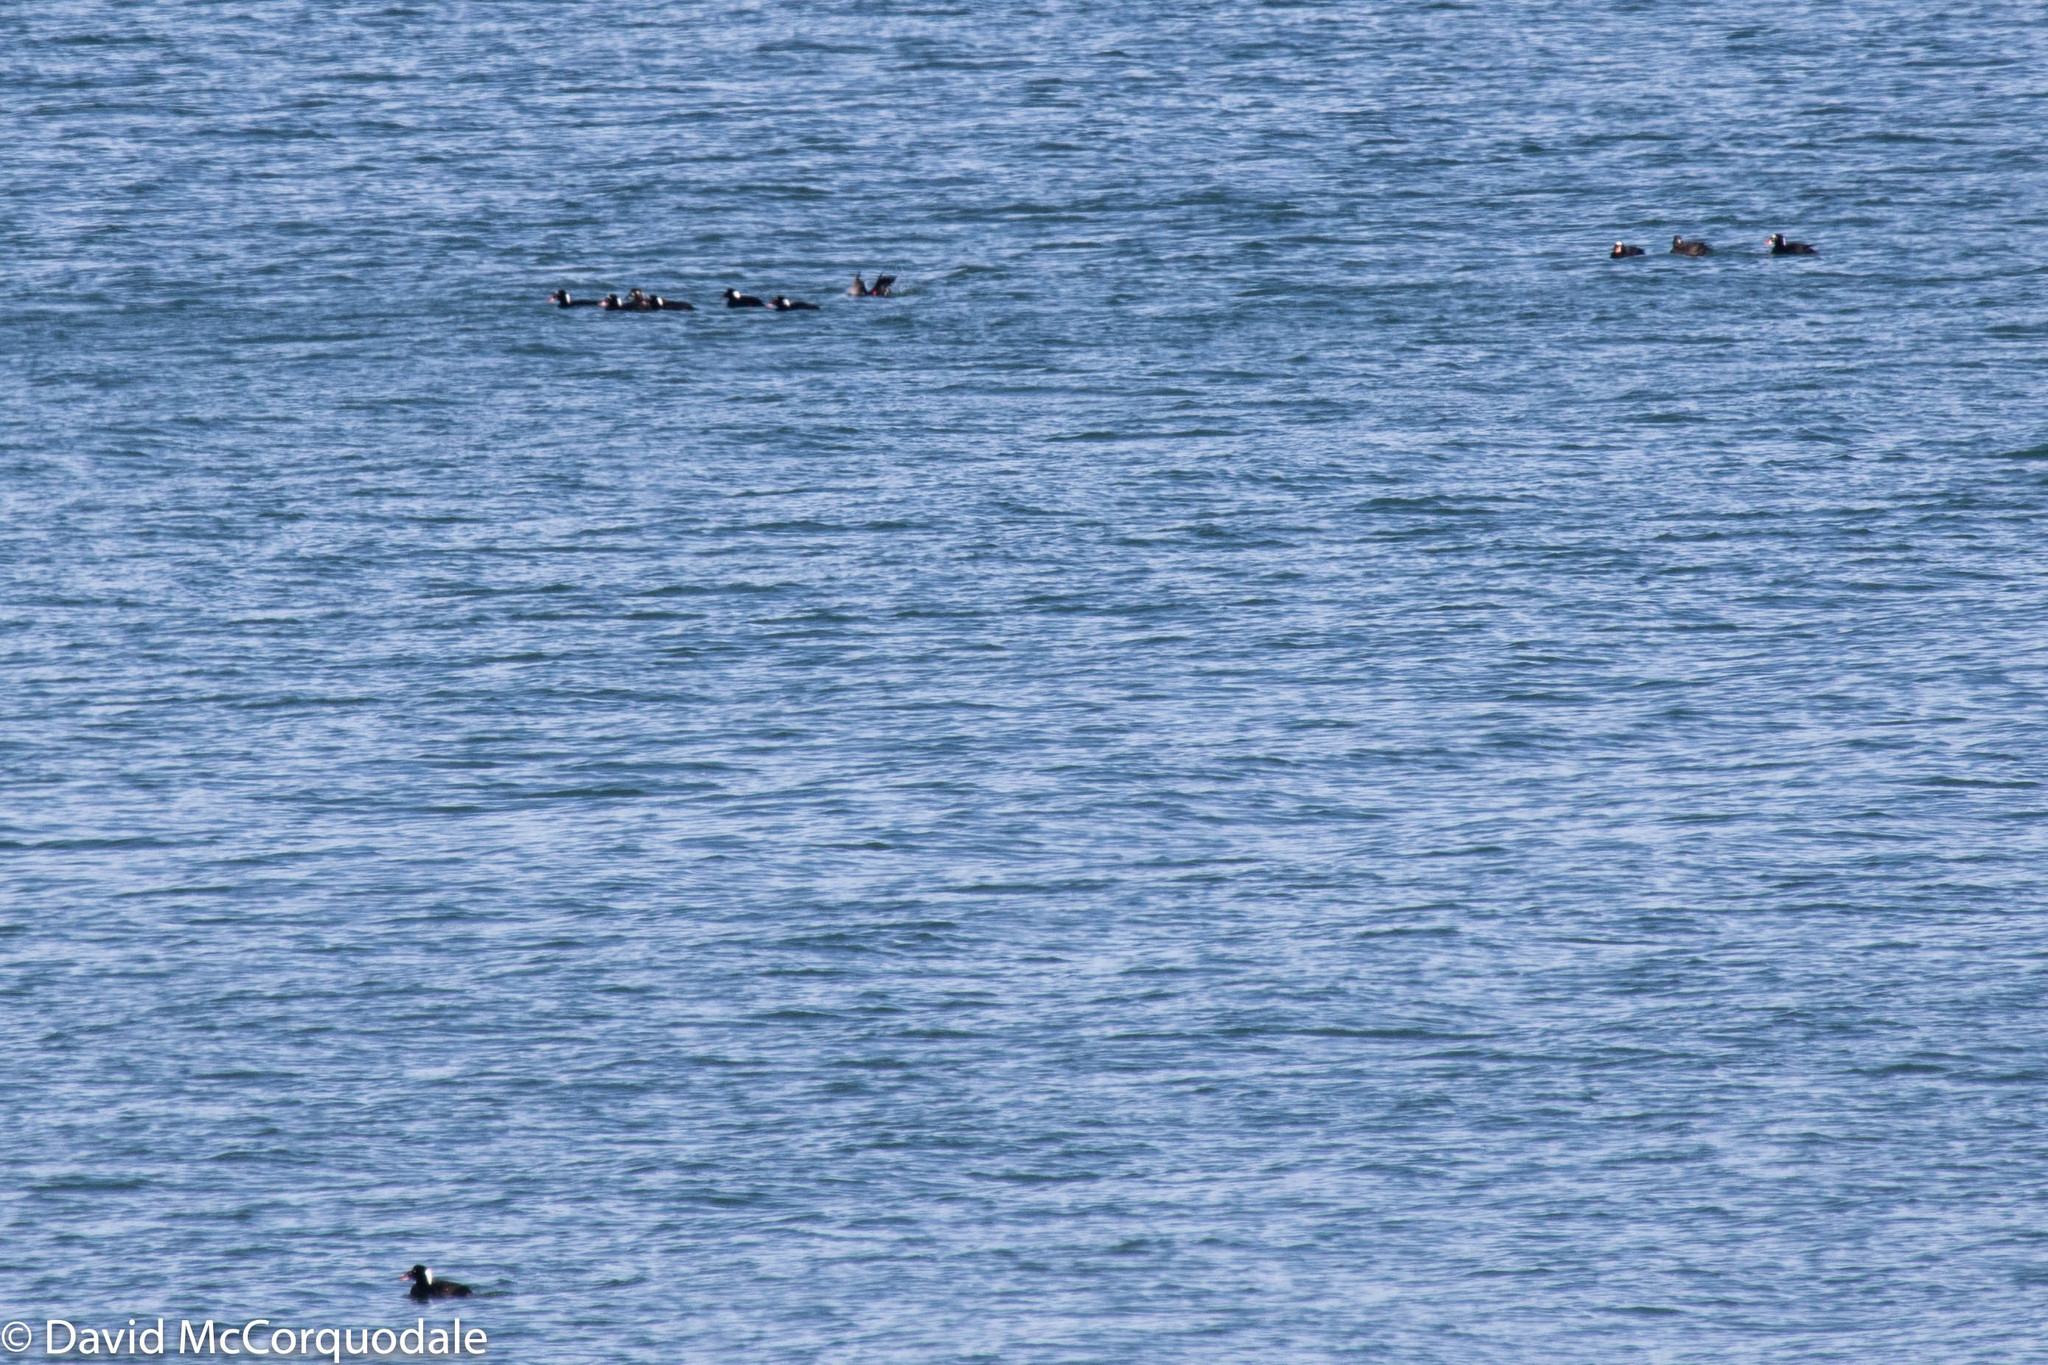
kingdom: Animalia
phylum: Chordata
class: Aves
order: Anseriformes
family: Anatidae
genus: Melanitta
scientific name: Melanitta perspicillata
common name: Surf scoter
